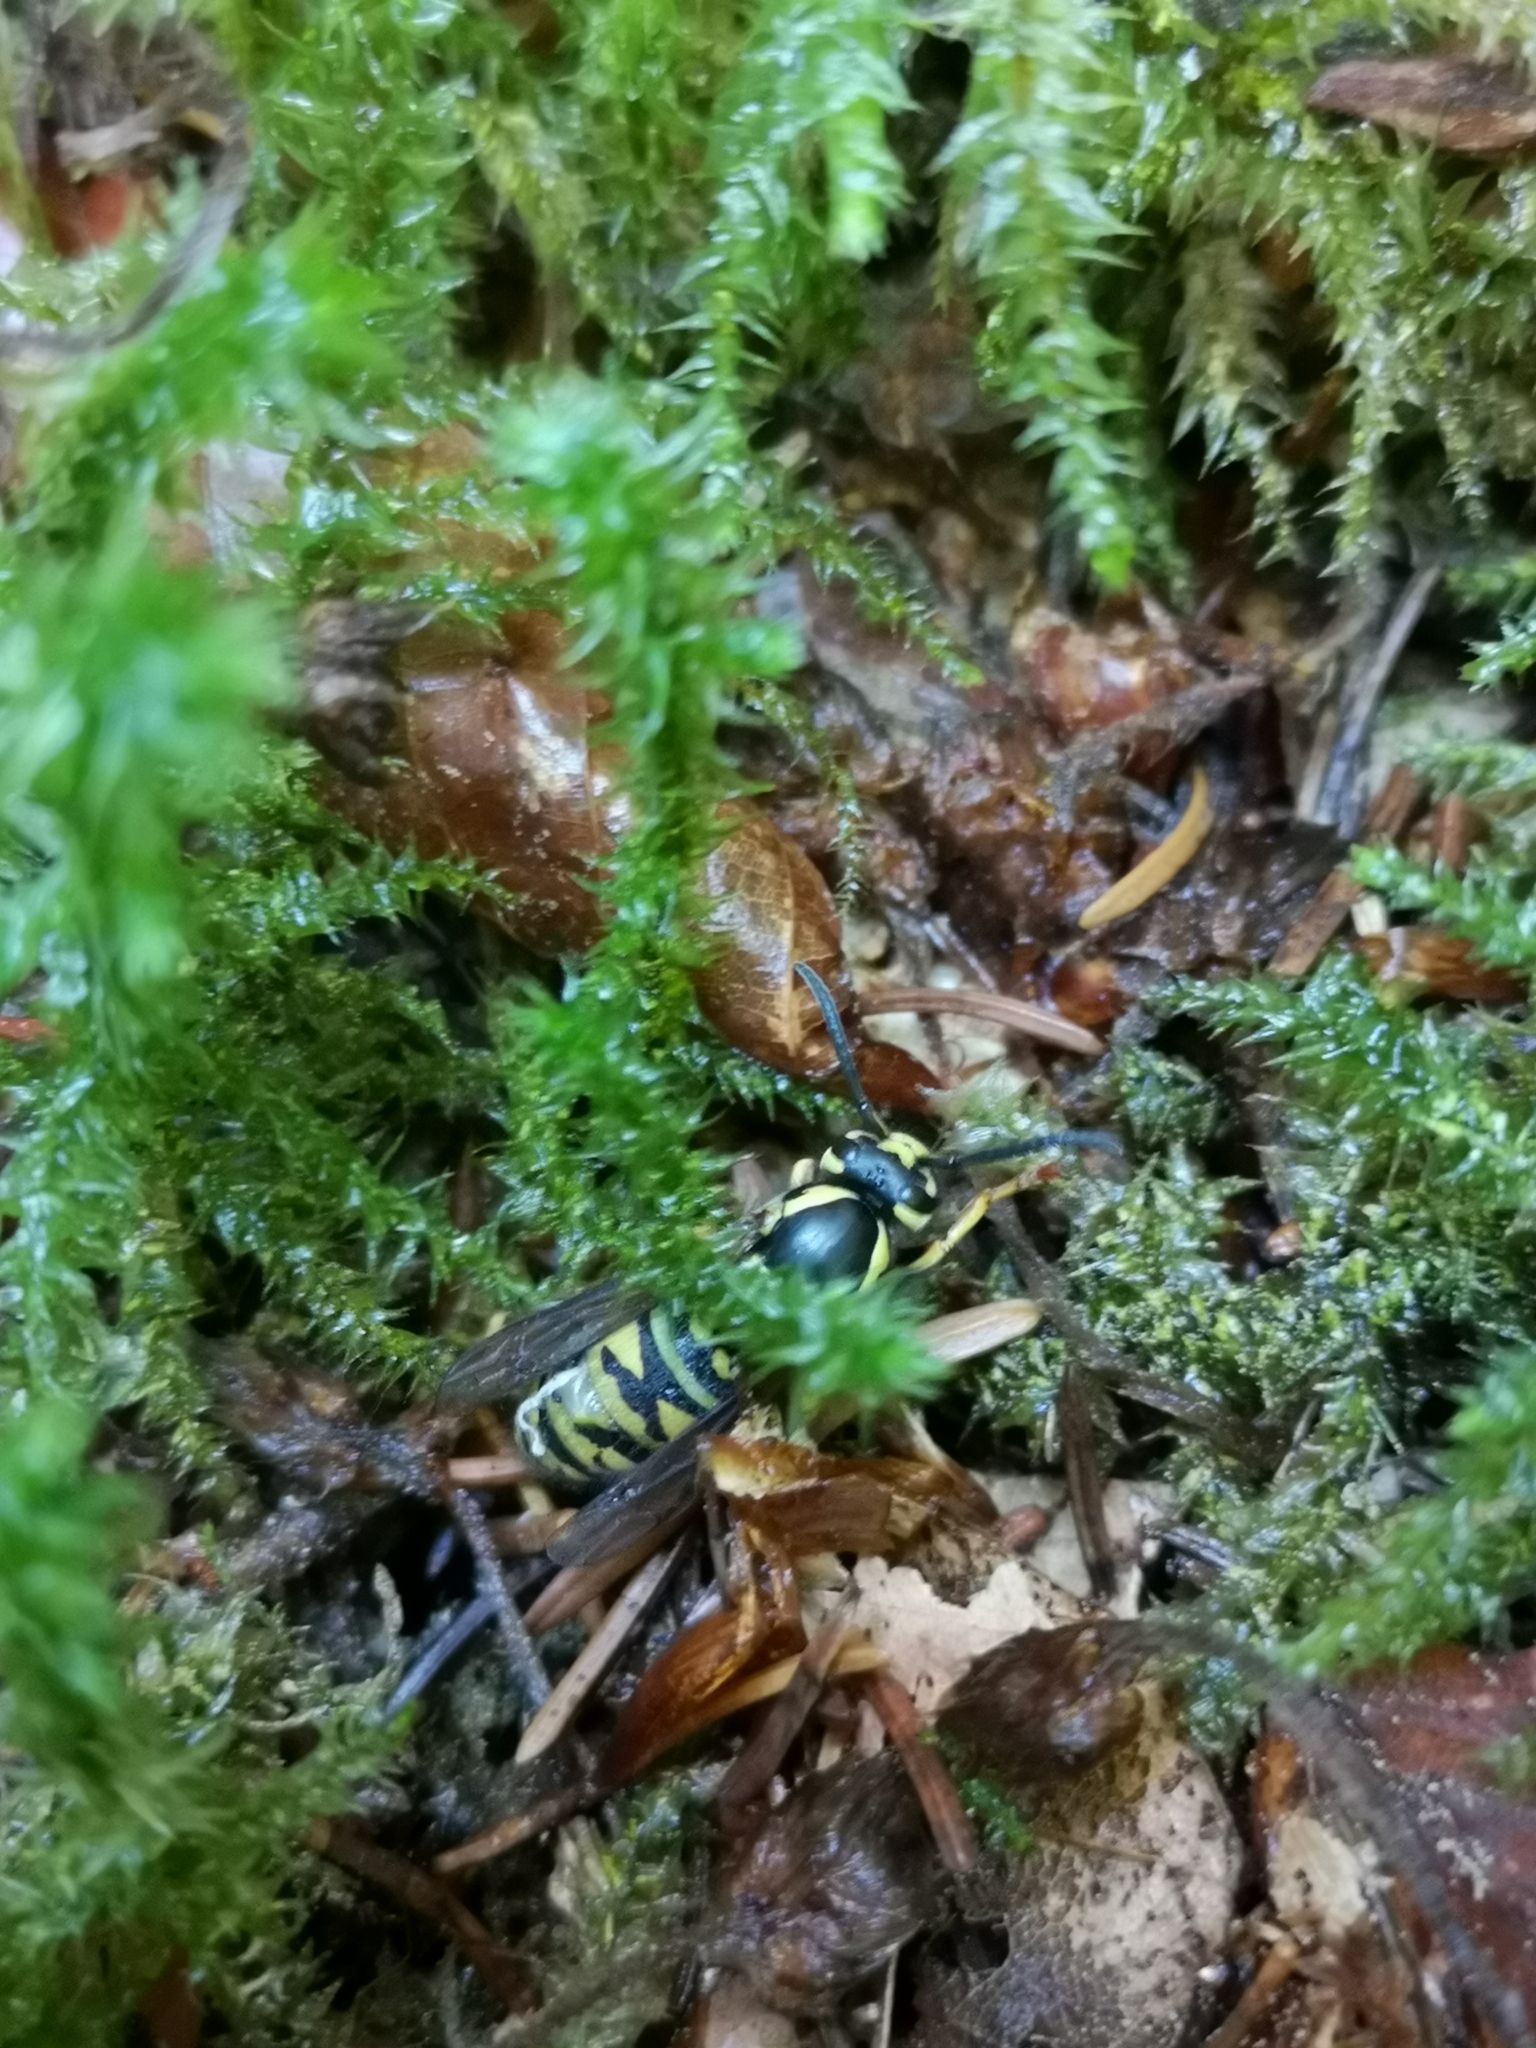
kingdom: Animalia
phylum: Arthropoda
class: Insecta
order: Hymenoptera
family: Vespidae
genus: Vespula
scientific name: Vespula austriaca
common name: Cuckoo wasp
